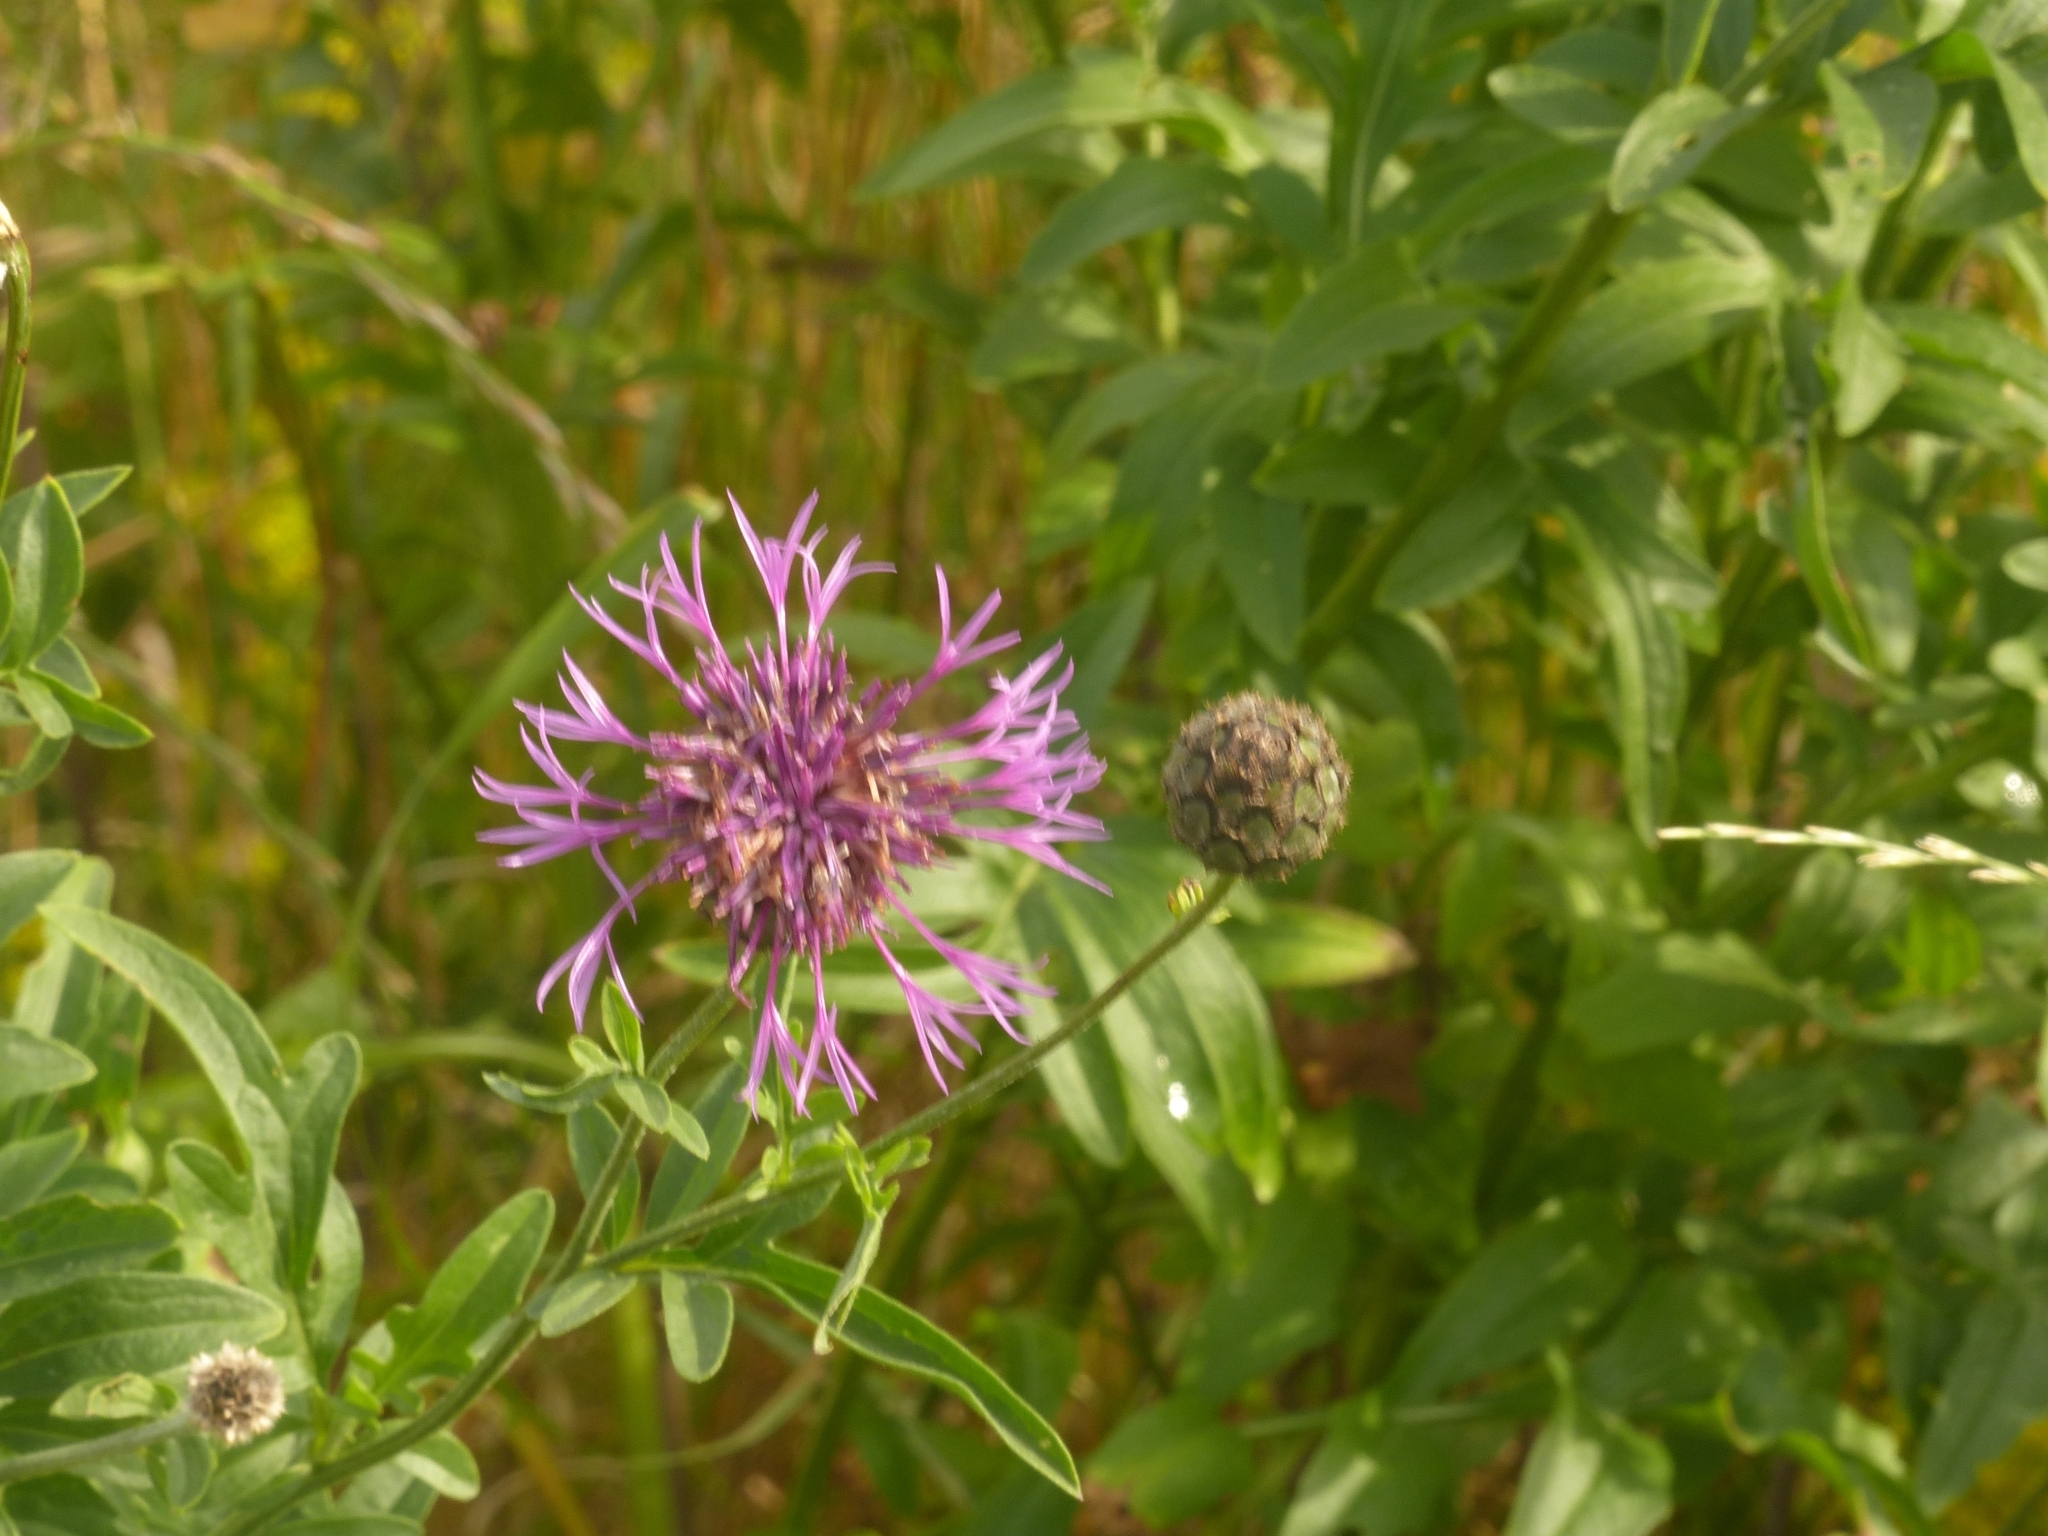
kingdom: Plantae
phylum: Tracheophyta
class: Magnoliopsida
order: Asterales
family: Asteraceae
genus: Centaurea
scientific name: Centaurea scabiosa
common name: Greater knapweed
